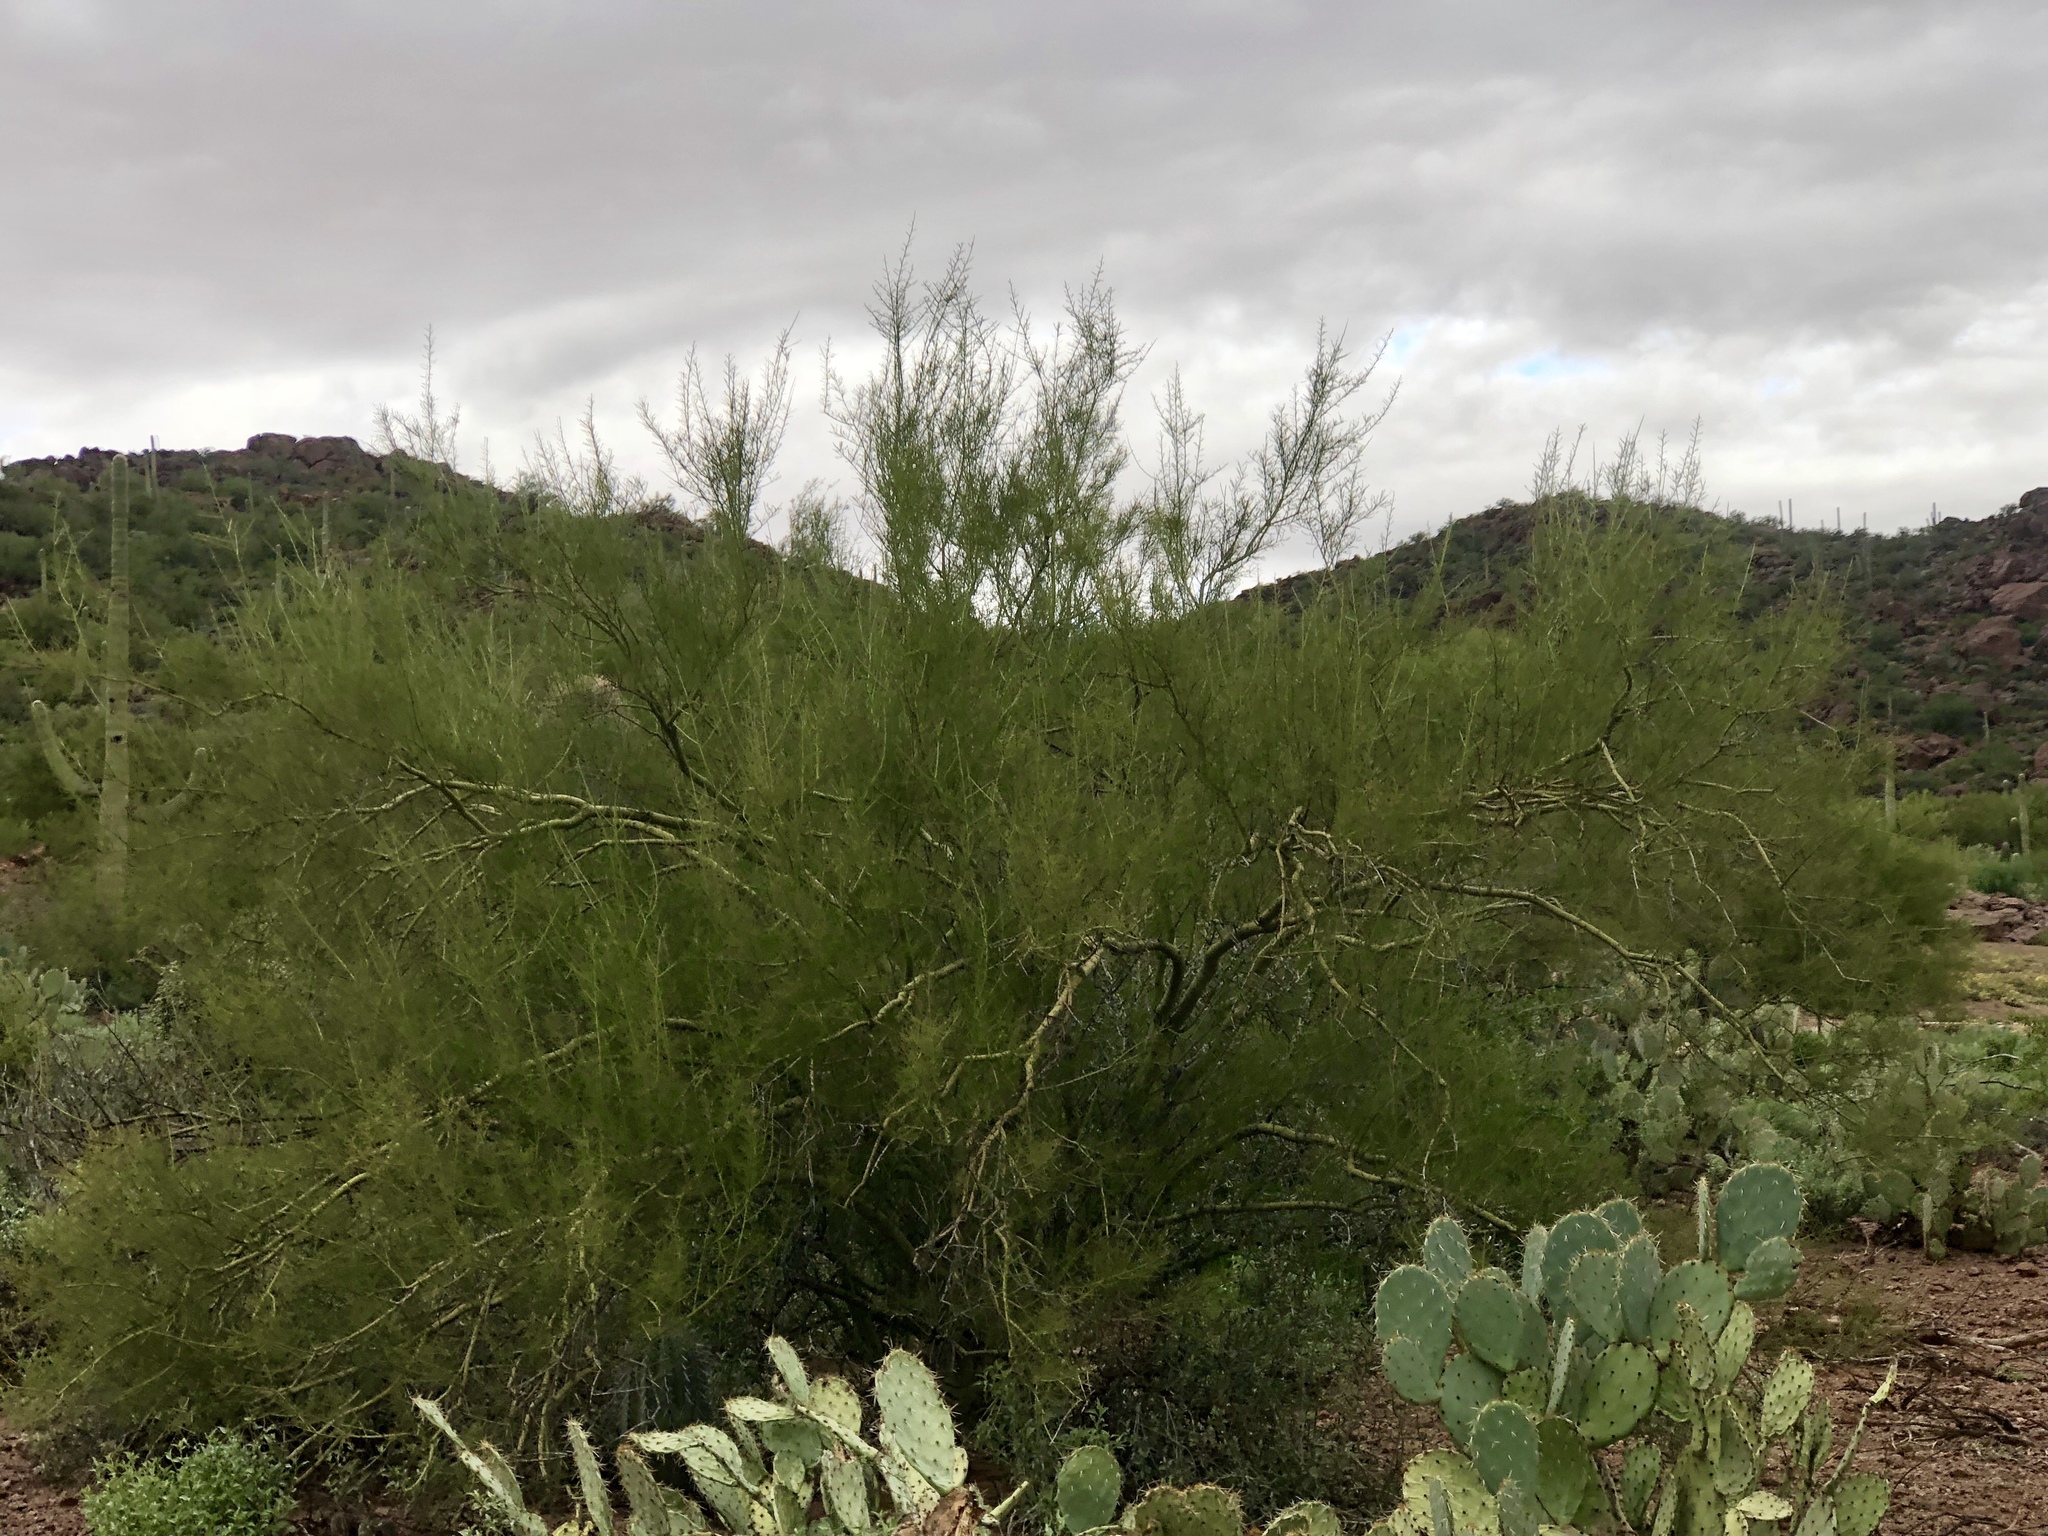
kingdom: Plantae
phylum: Tracheophyta
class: Magnoliopsida
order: Fabales
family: Fabaceae
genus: Parkinsonia
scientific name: Parkinsonia microphylla
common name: Yellow paloverde
